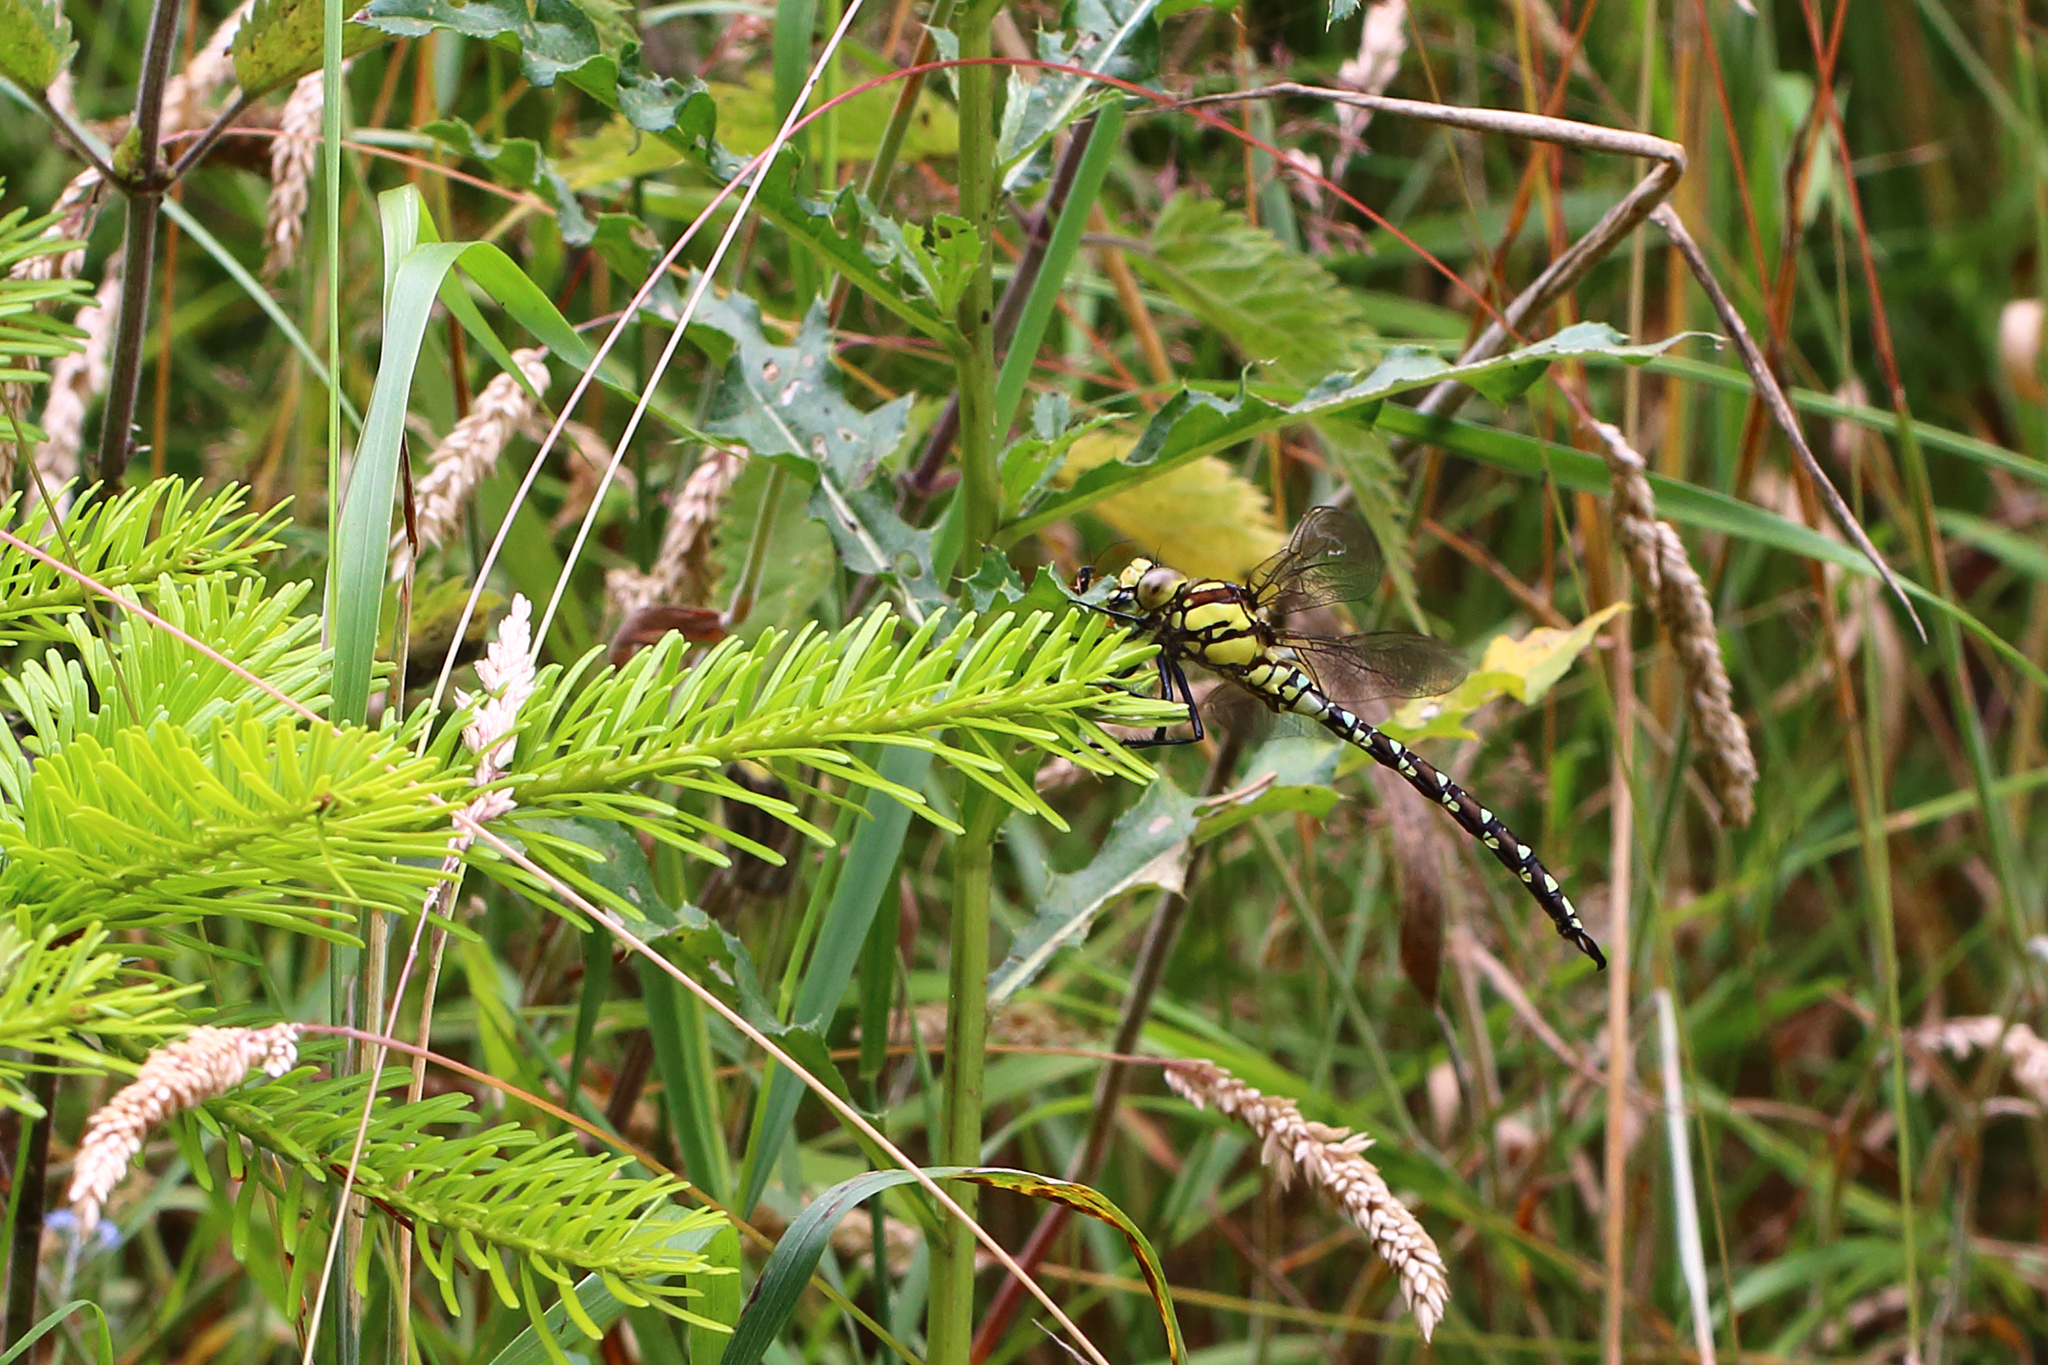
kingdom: Animalia
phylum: Arthropoda
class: Insecta
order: Odonata
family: Aeshnidae
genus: Aeshna
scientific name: Aeshna cyanea
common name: Southern hawker
